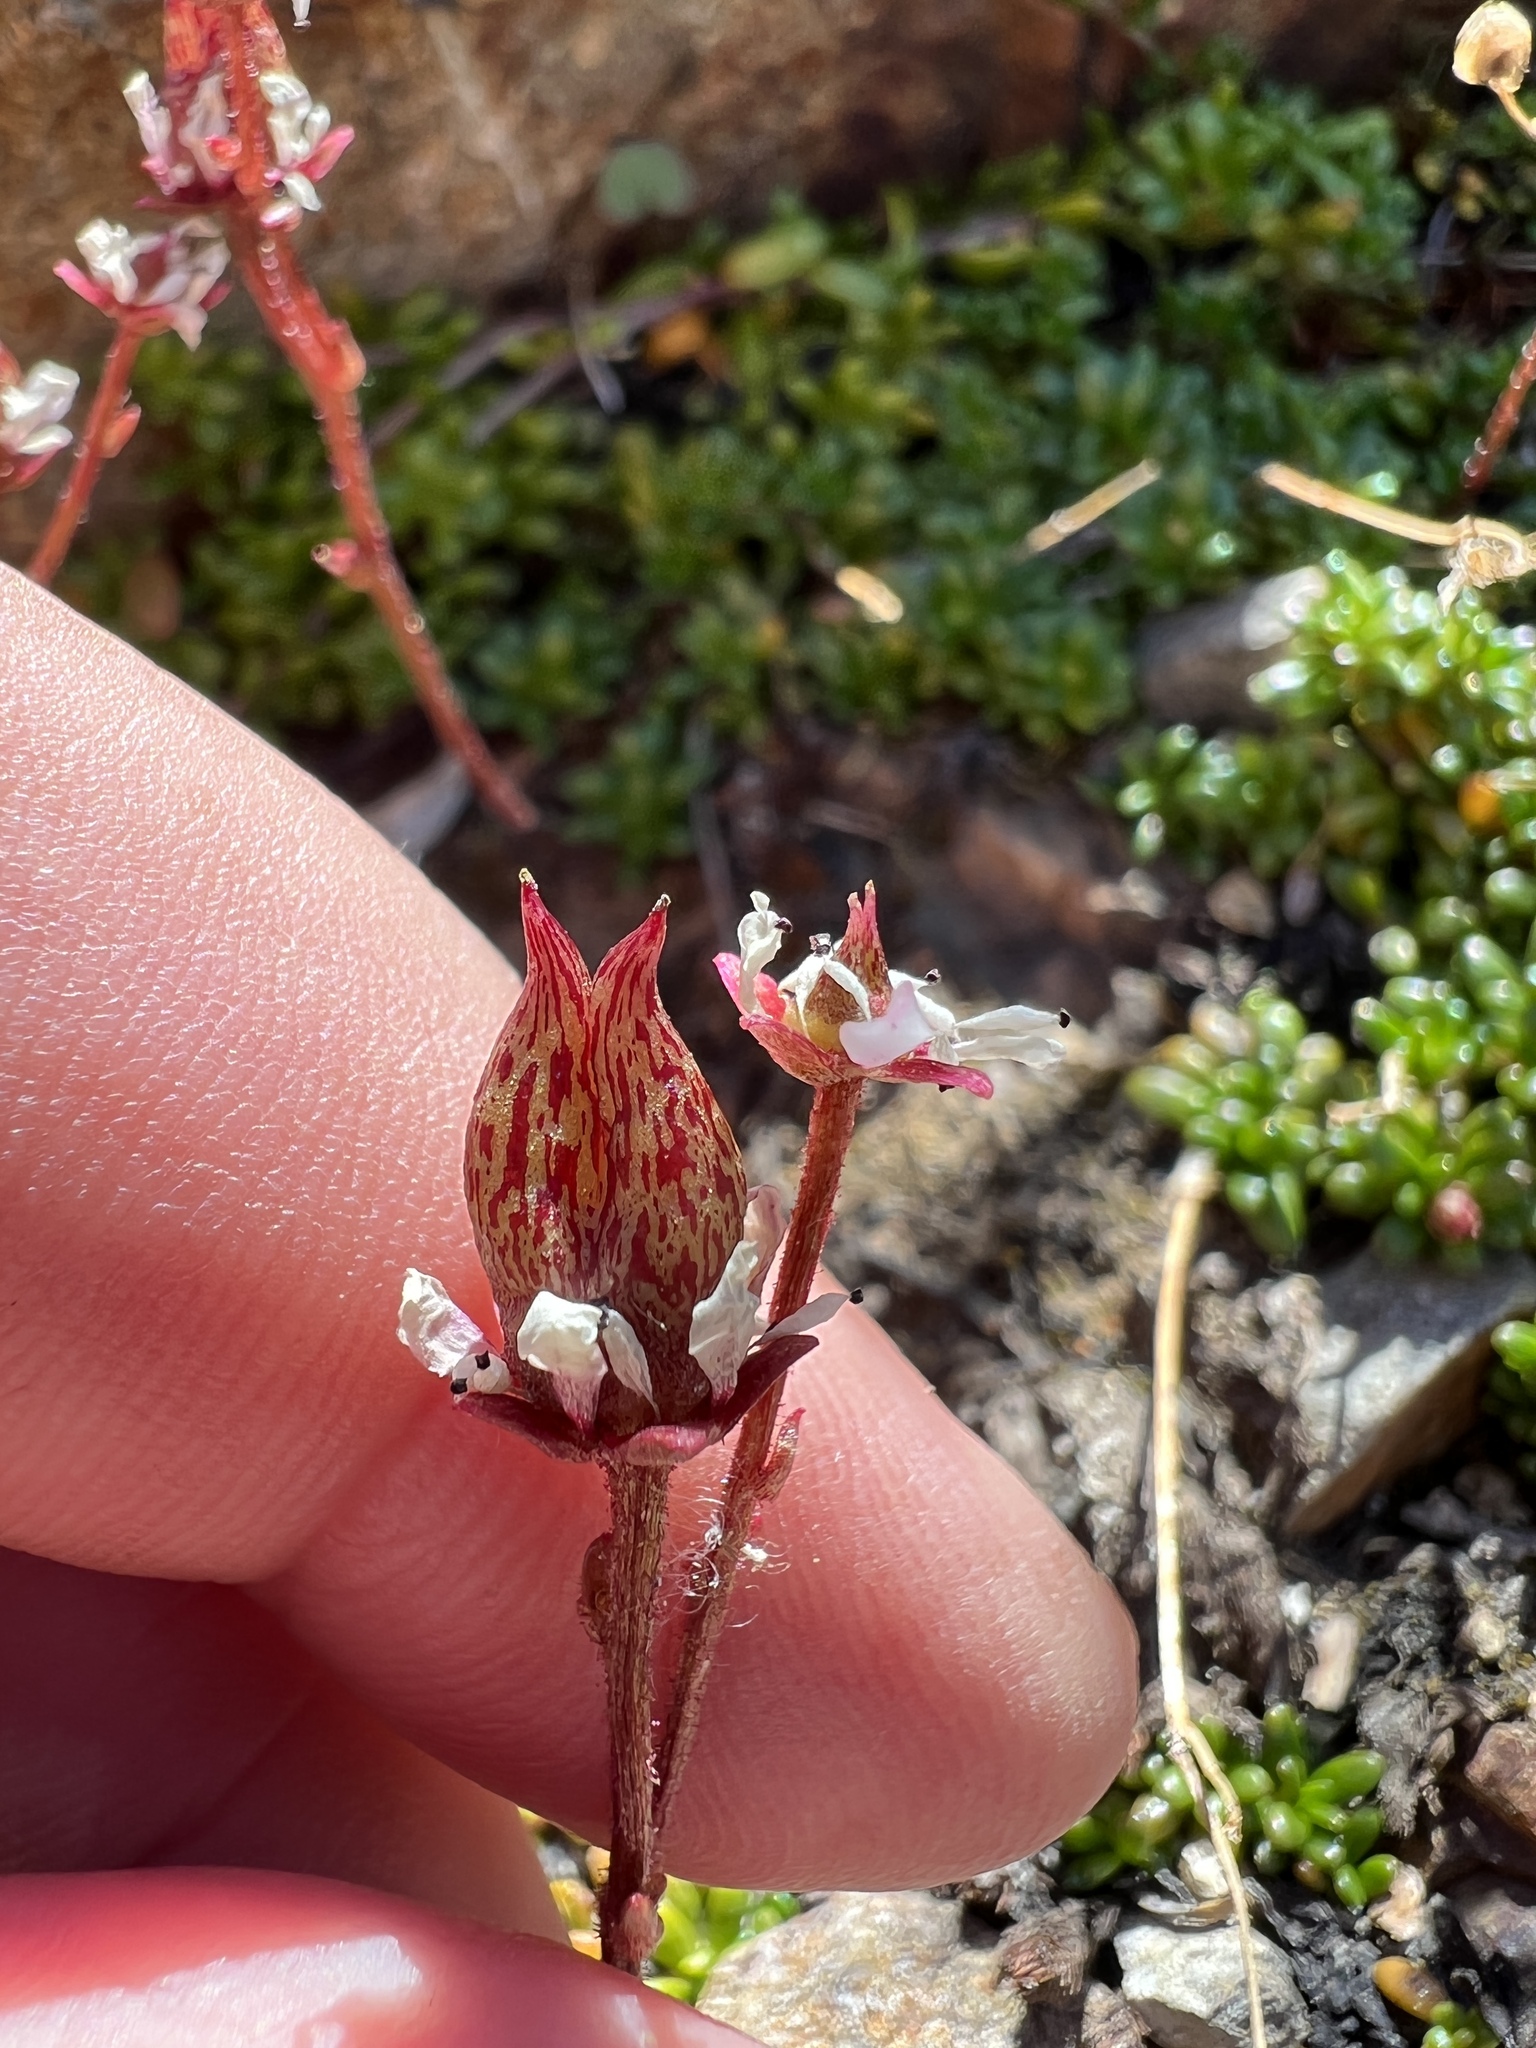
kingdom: Plantae
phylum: Tracheophyta
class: Magnoliopsida
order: Saxifragales
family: Saxifragaceae
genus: Micranthes
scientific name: Micranthes tolmiei
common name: Tolmie's saxifrage
